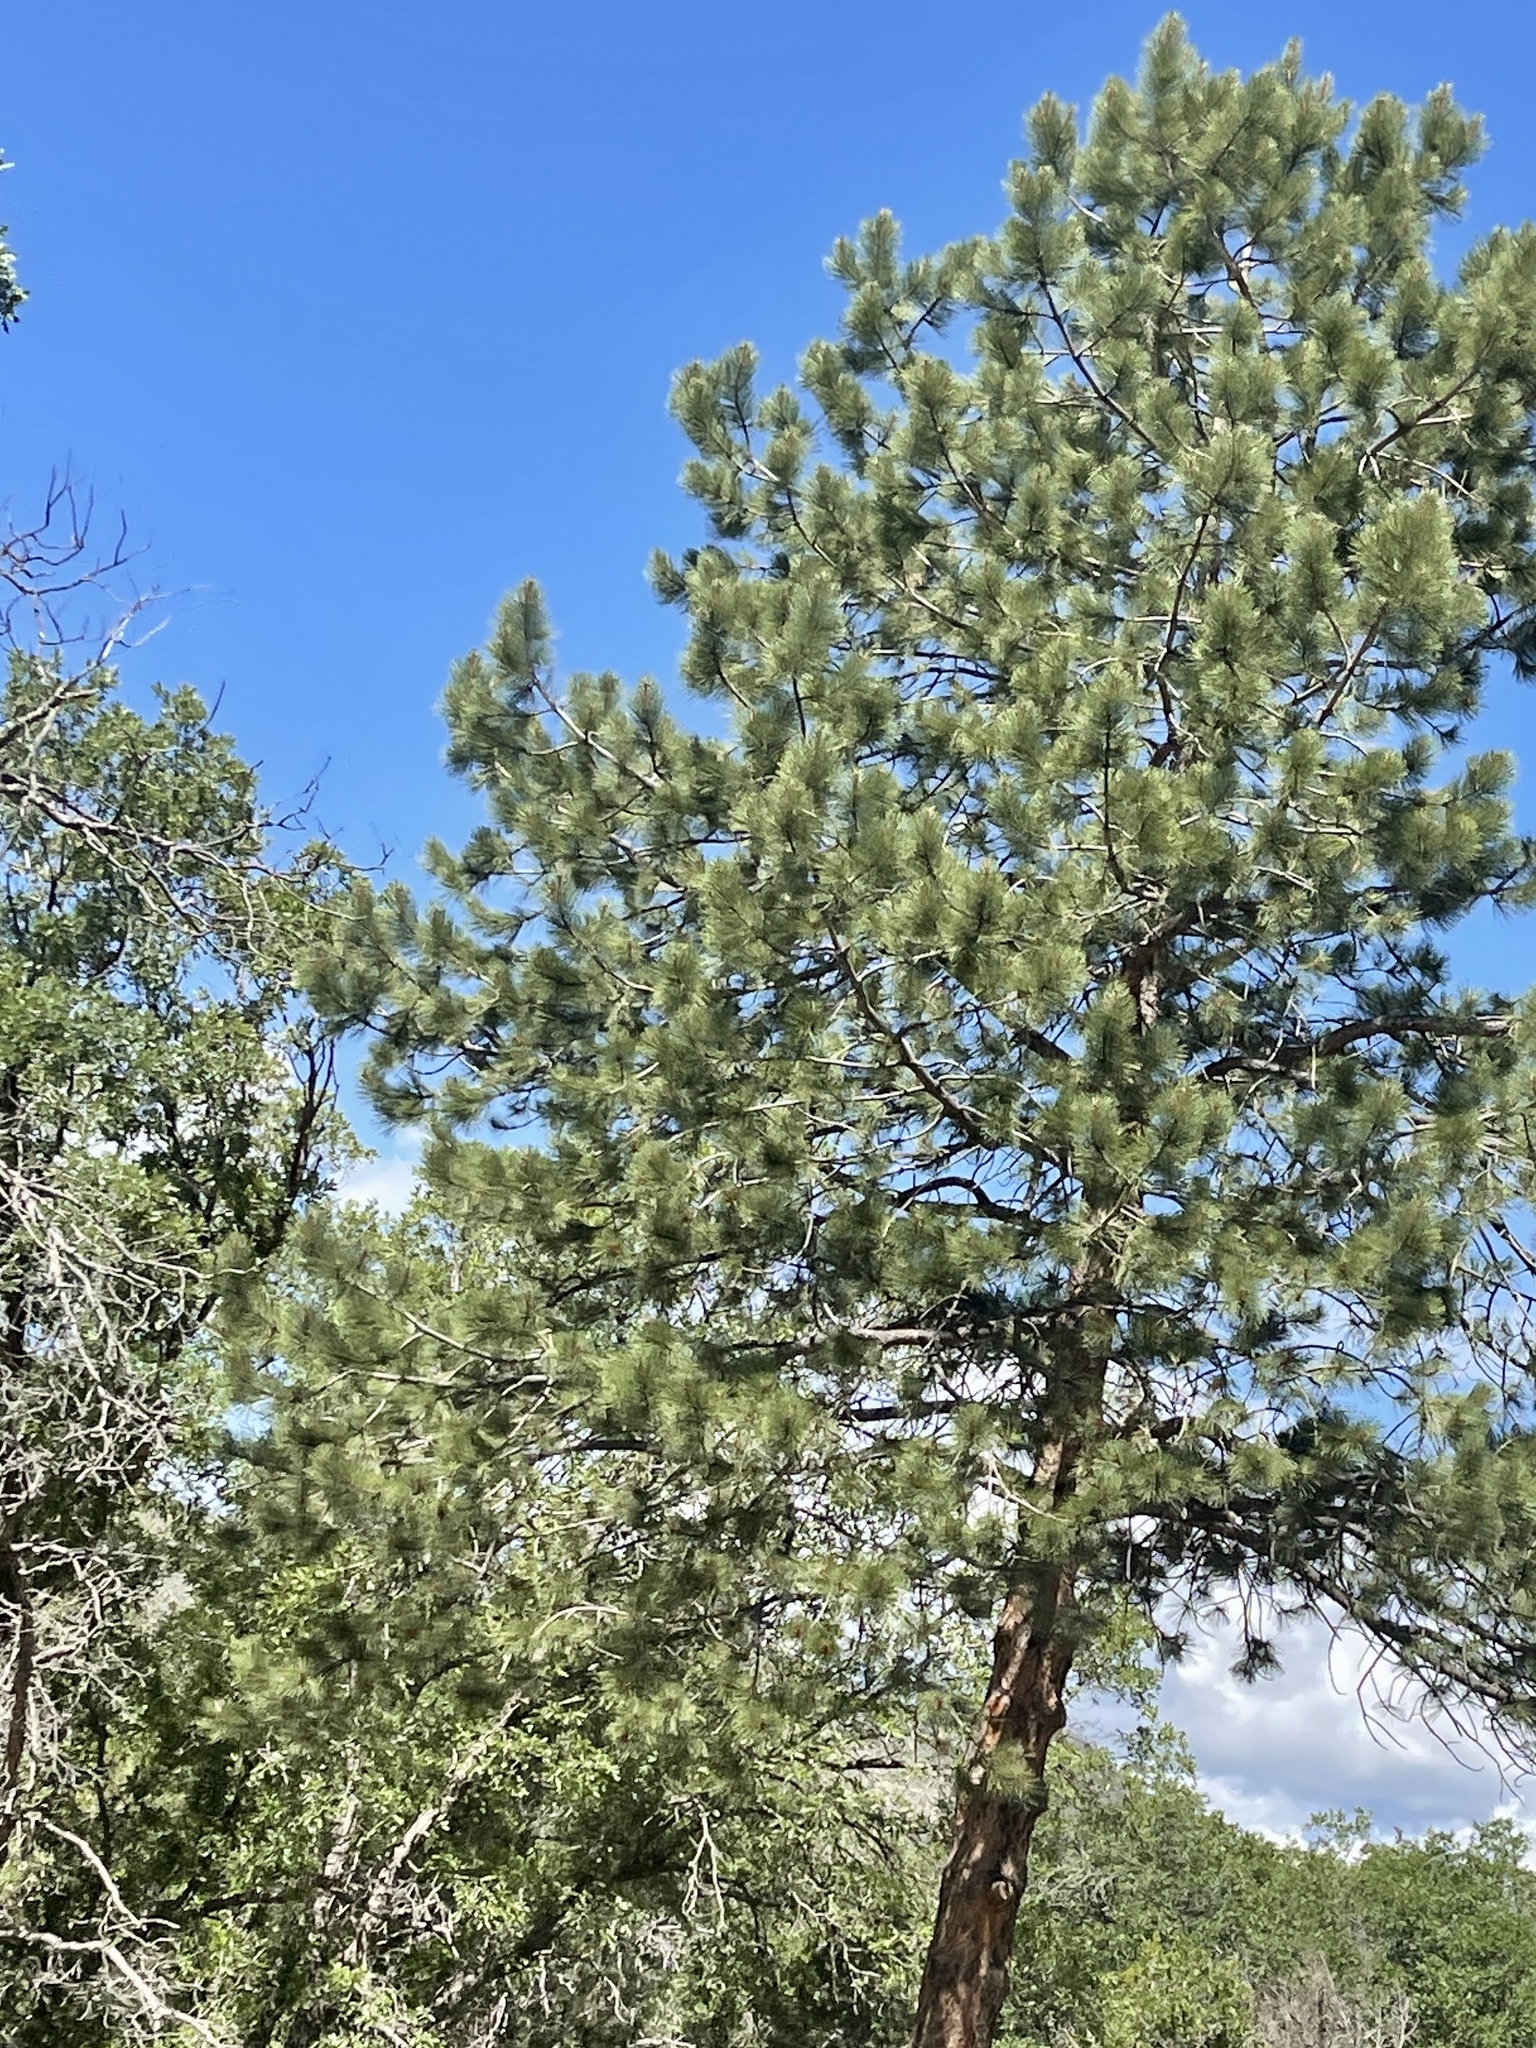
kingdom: Plantae
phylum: Tracheophyta
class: Pinopsida
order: Pinales
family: Pinaceae
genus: Pinus
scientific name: Pinus ponderosa
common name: Western yellow-pine
